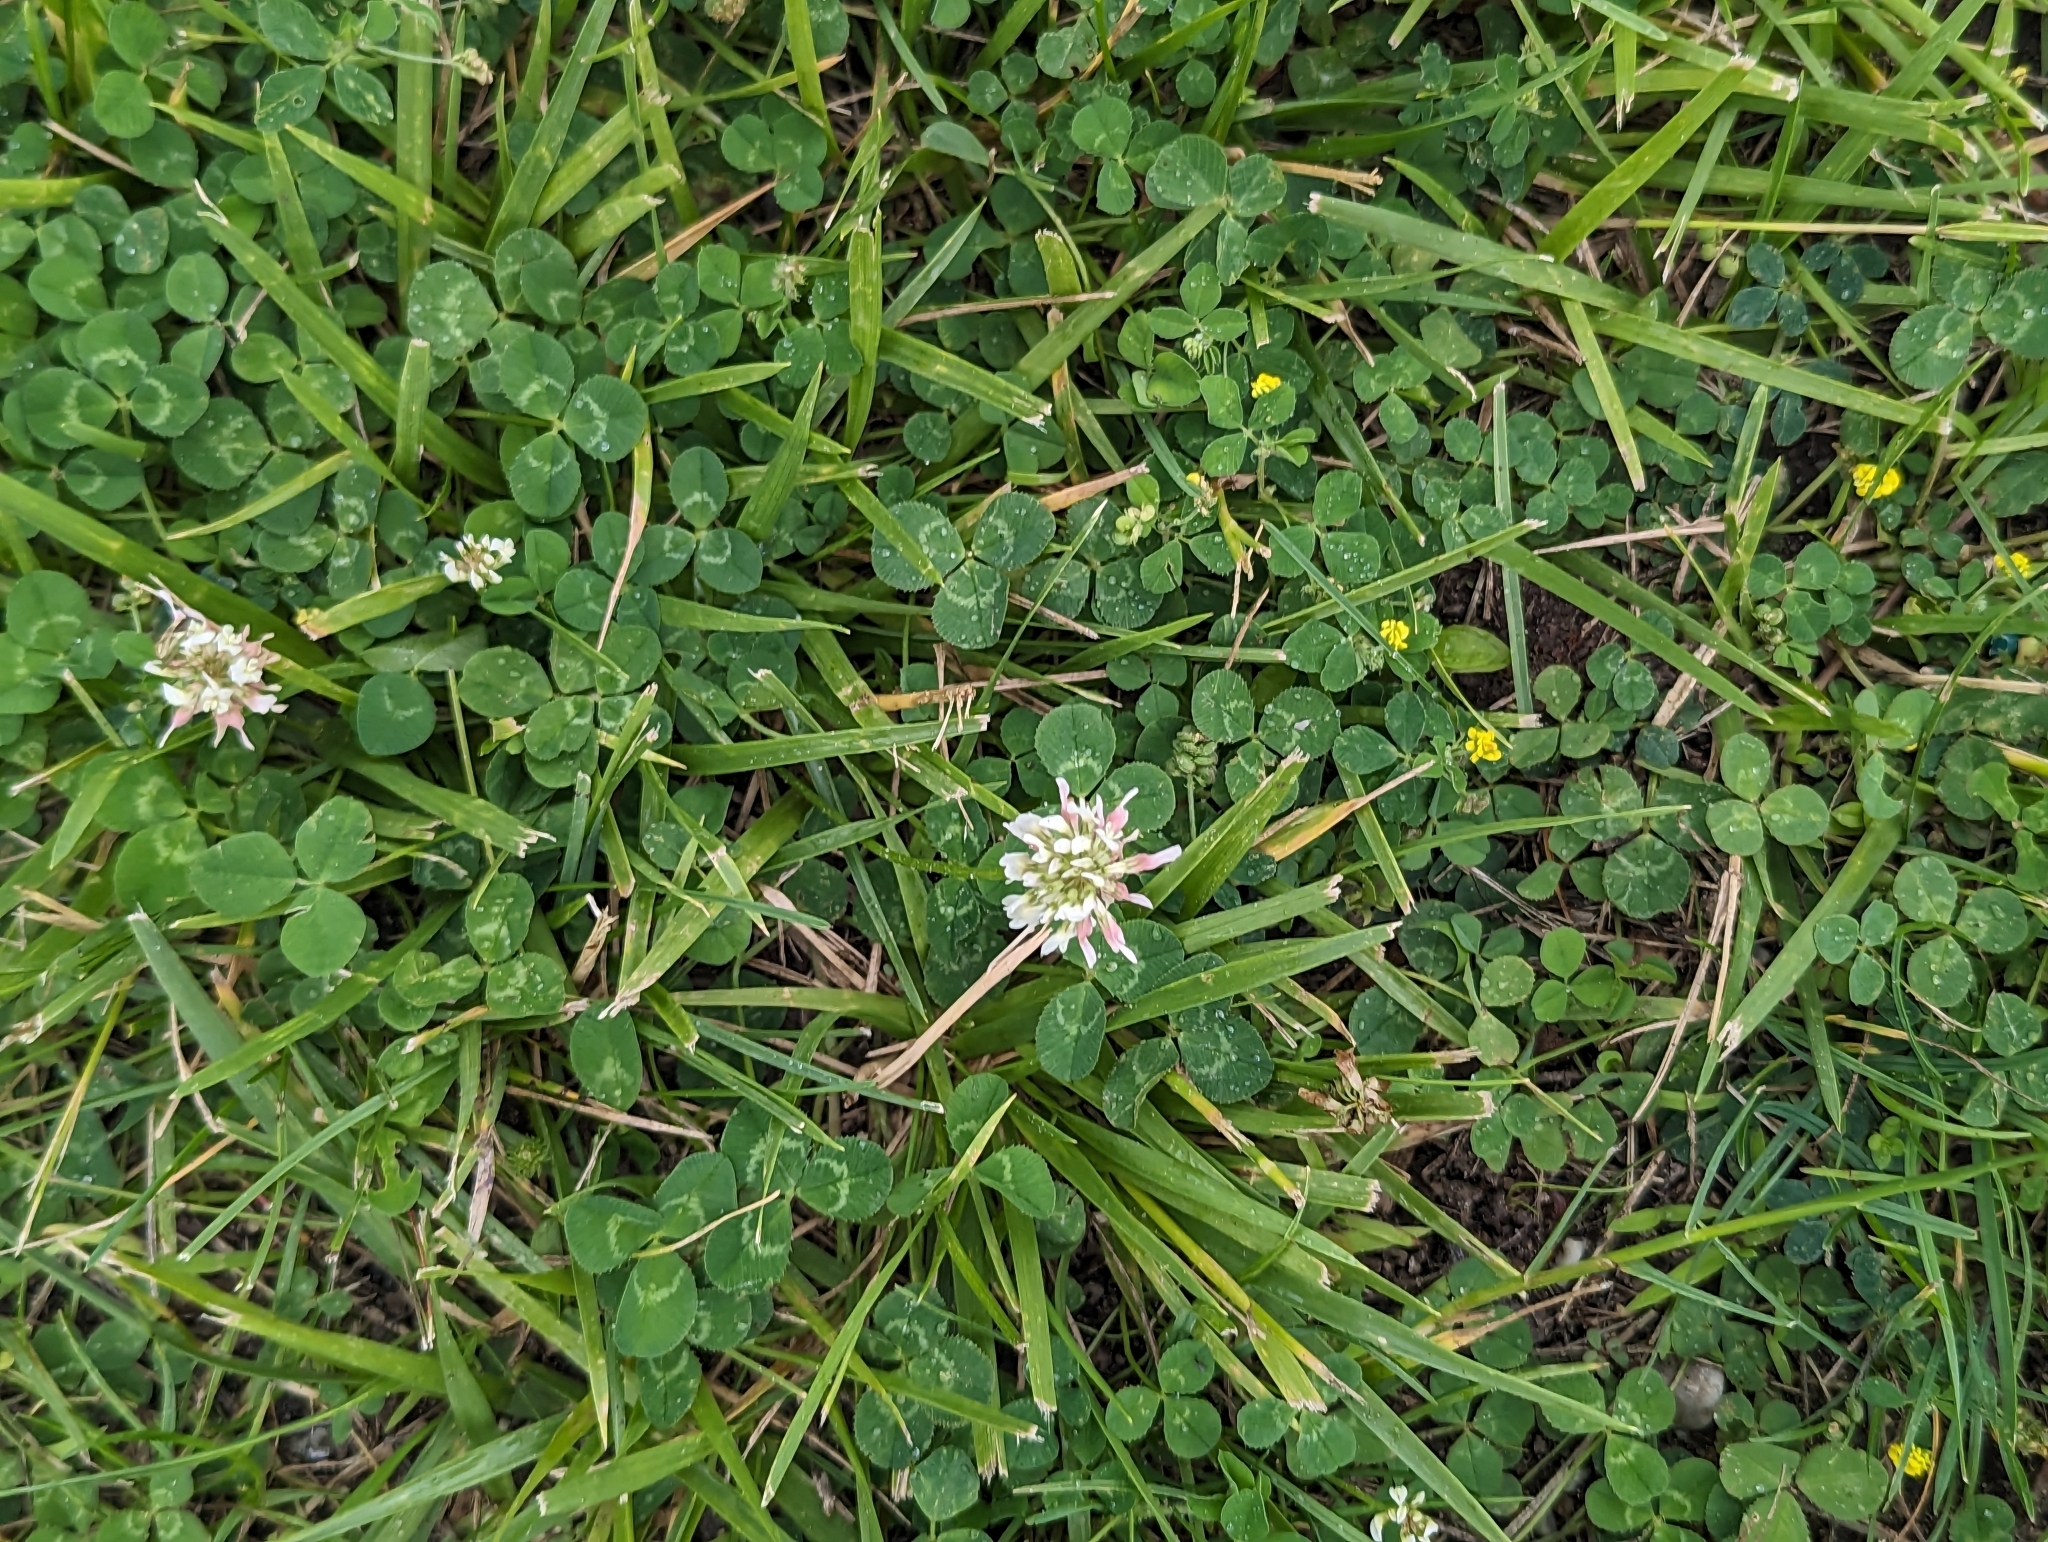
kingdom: Plantae
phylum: Tracheophyta
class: Magnoliopsida
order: Fabales
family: Fabaceae
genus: Trifolium
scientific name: Trifolium repens
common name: White clover
